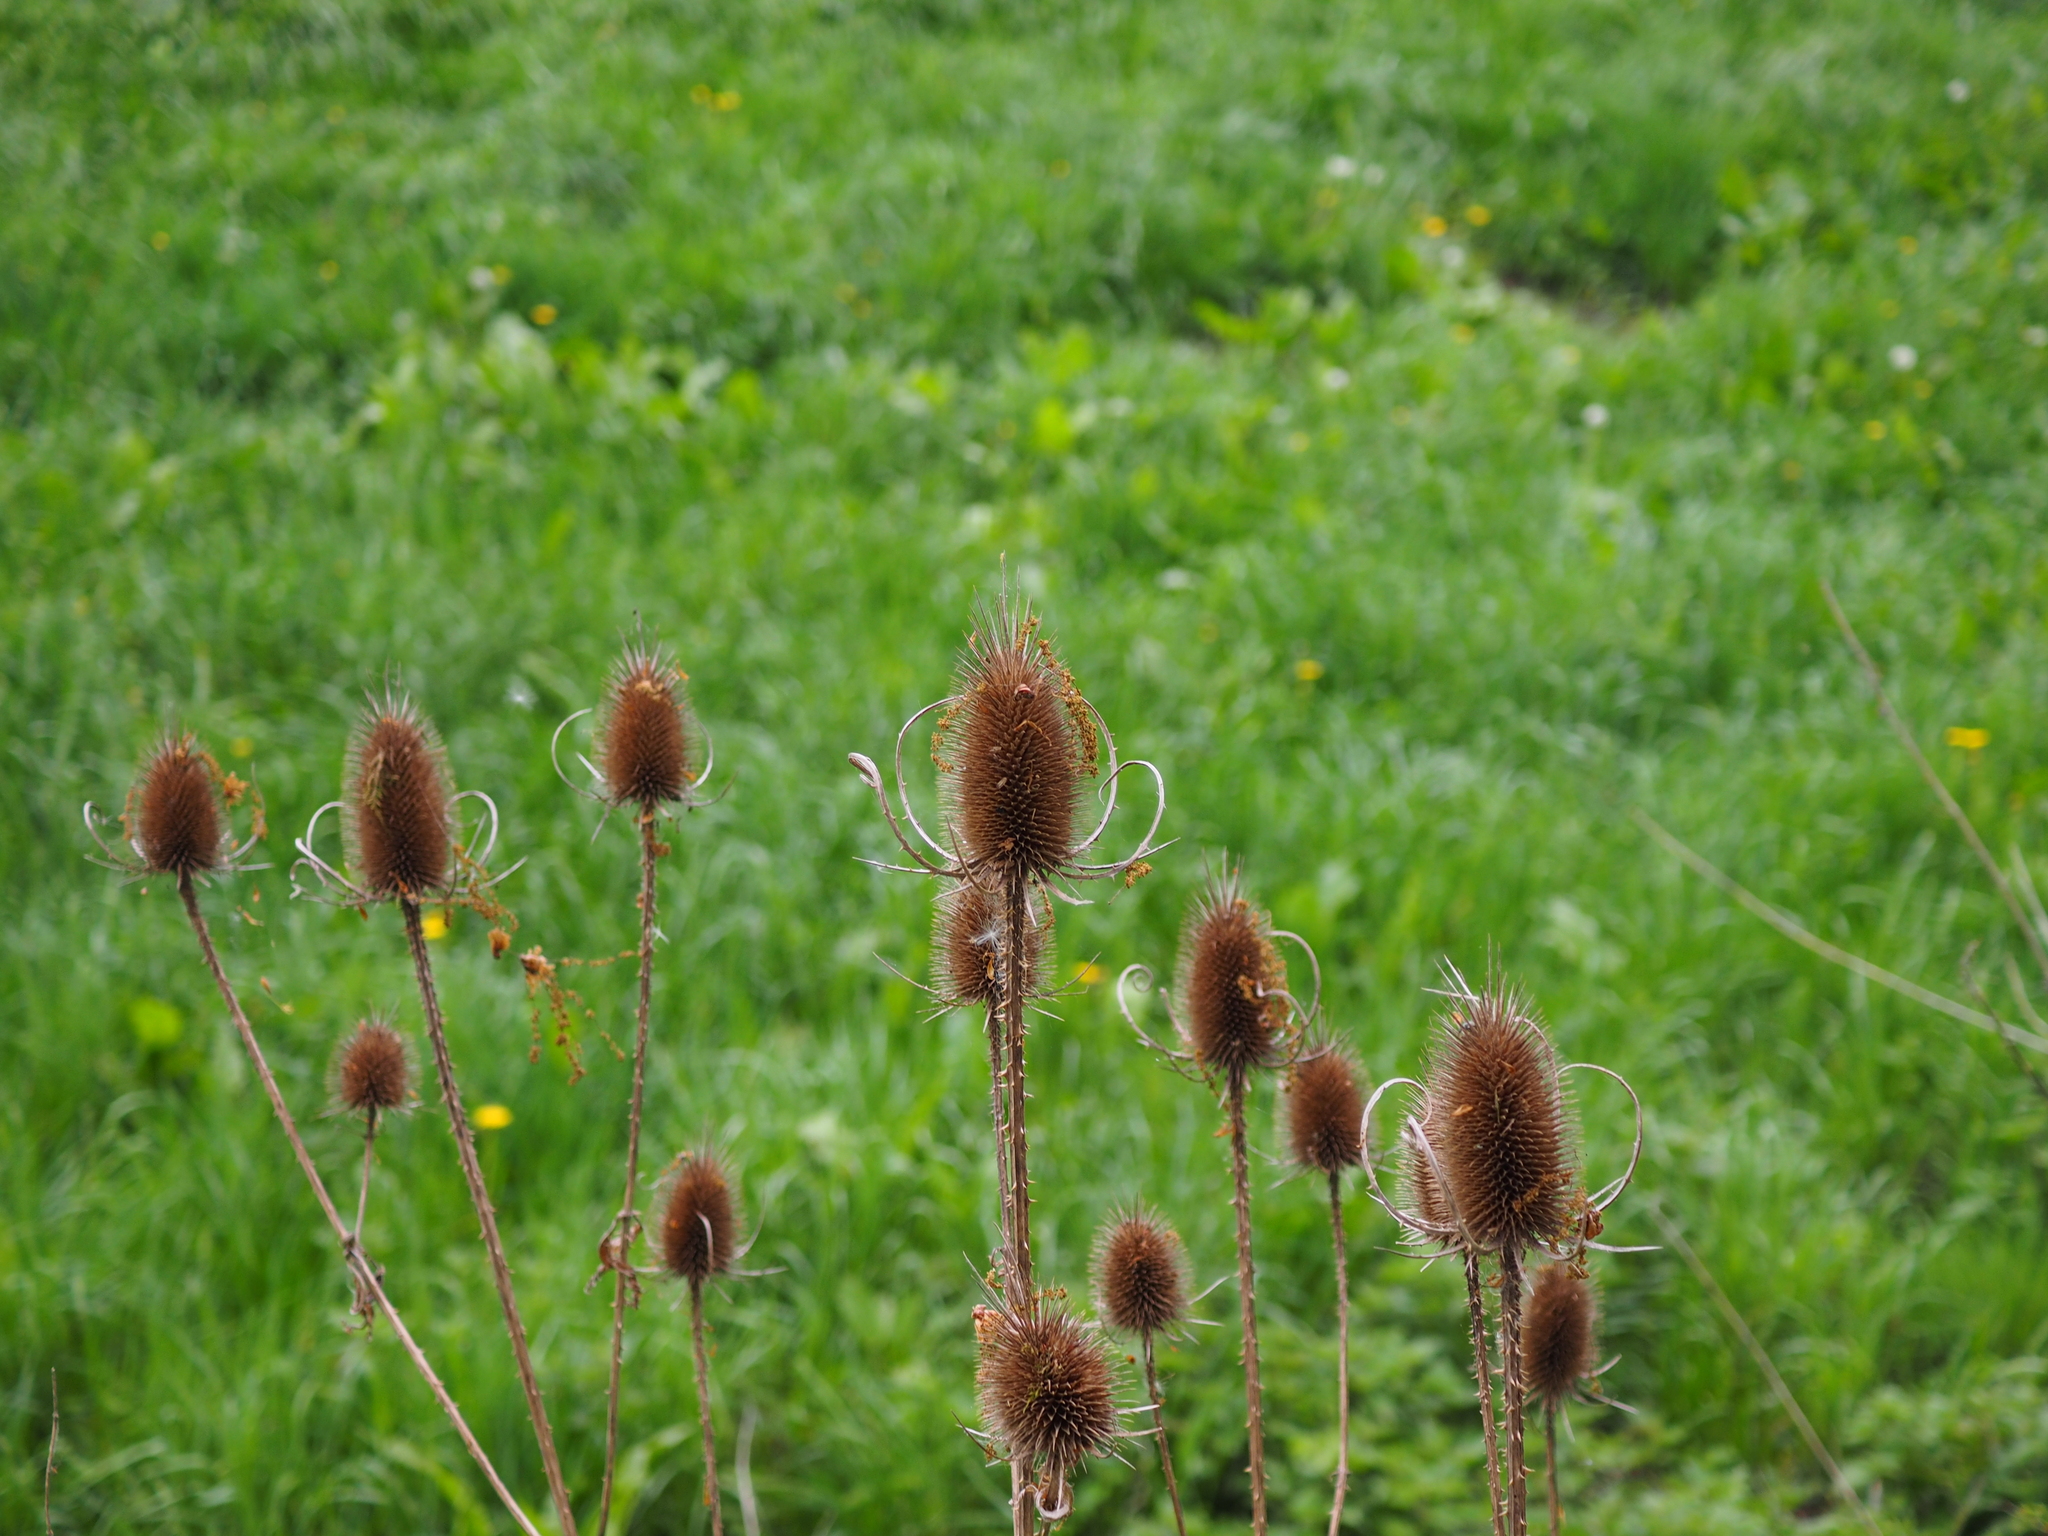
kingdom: Plantae
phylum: Tracheophyta
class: Magnoliopsida
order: Dipsacales
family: Caprifoliaceae
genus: Dipsacus
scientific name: Dipsacus fullonum
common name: Teasel
